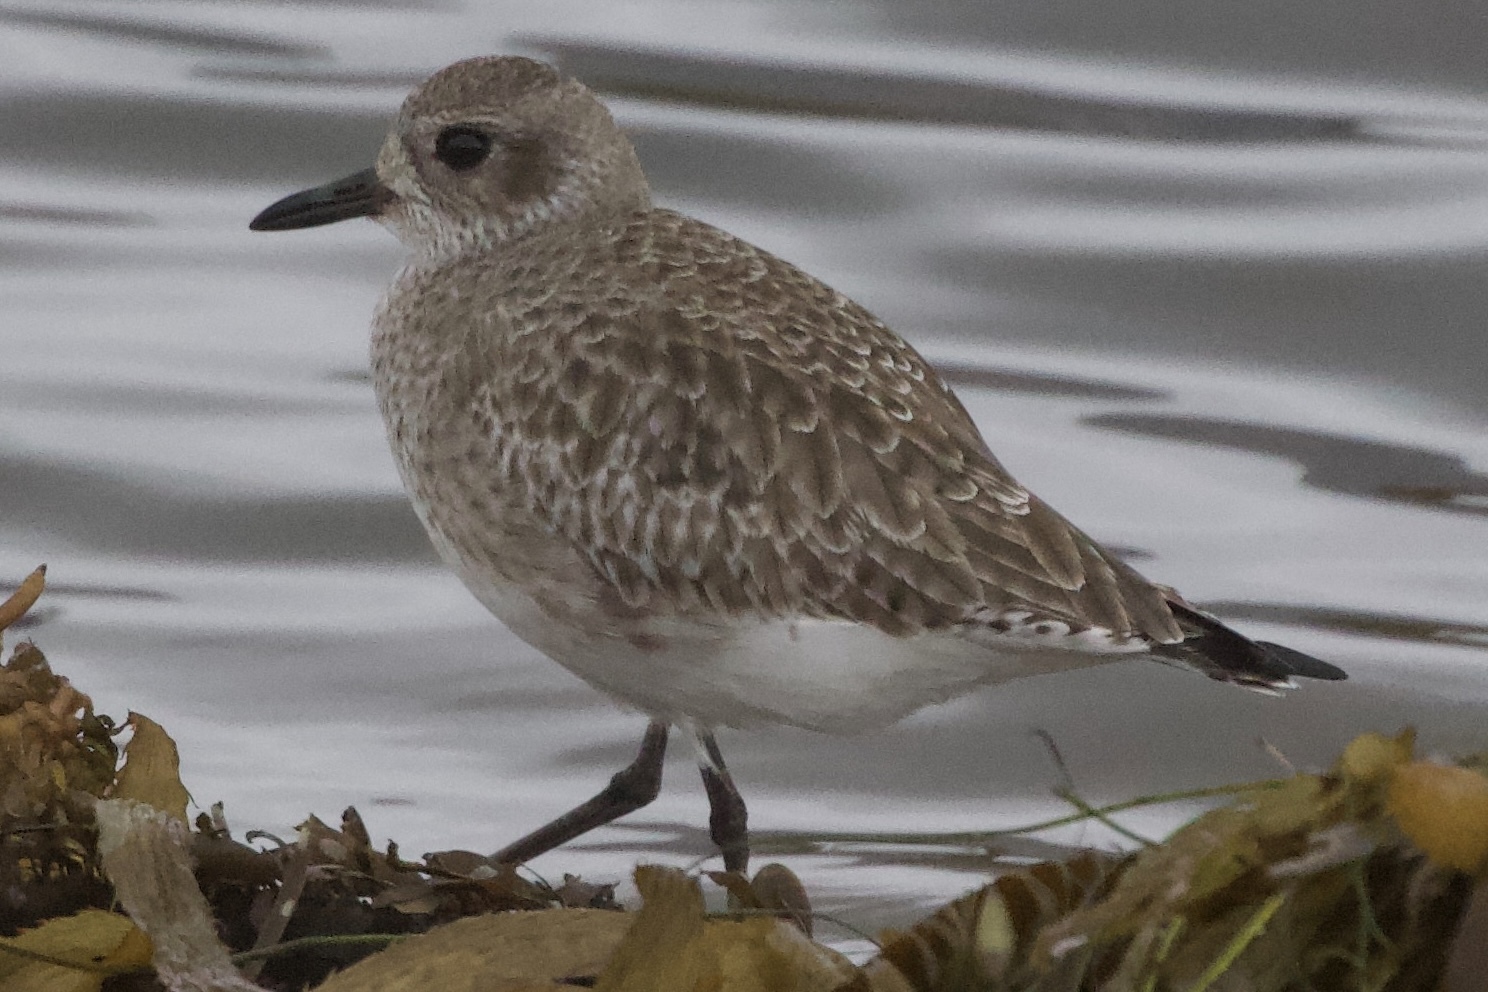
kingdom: Animalia
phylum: Chordata
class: Aves
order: Charadriiformes
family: Charadriidae
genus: Pluvialis
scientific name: Pluvialis squatarola
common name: Grey plover
